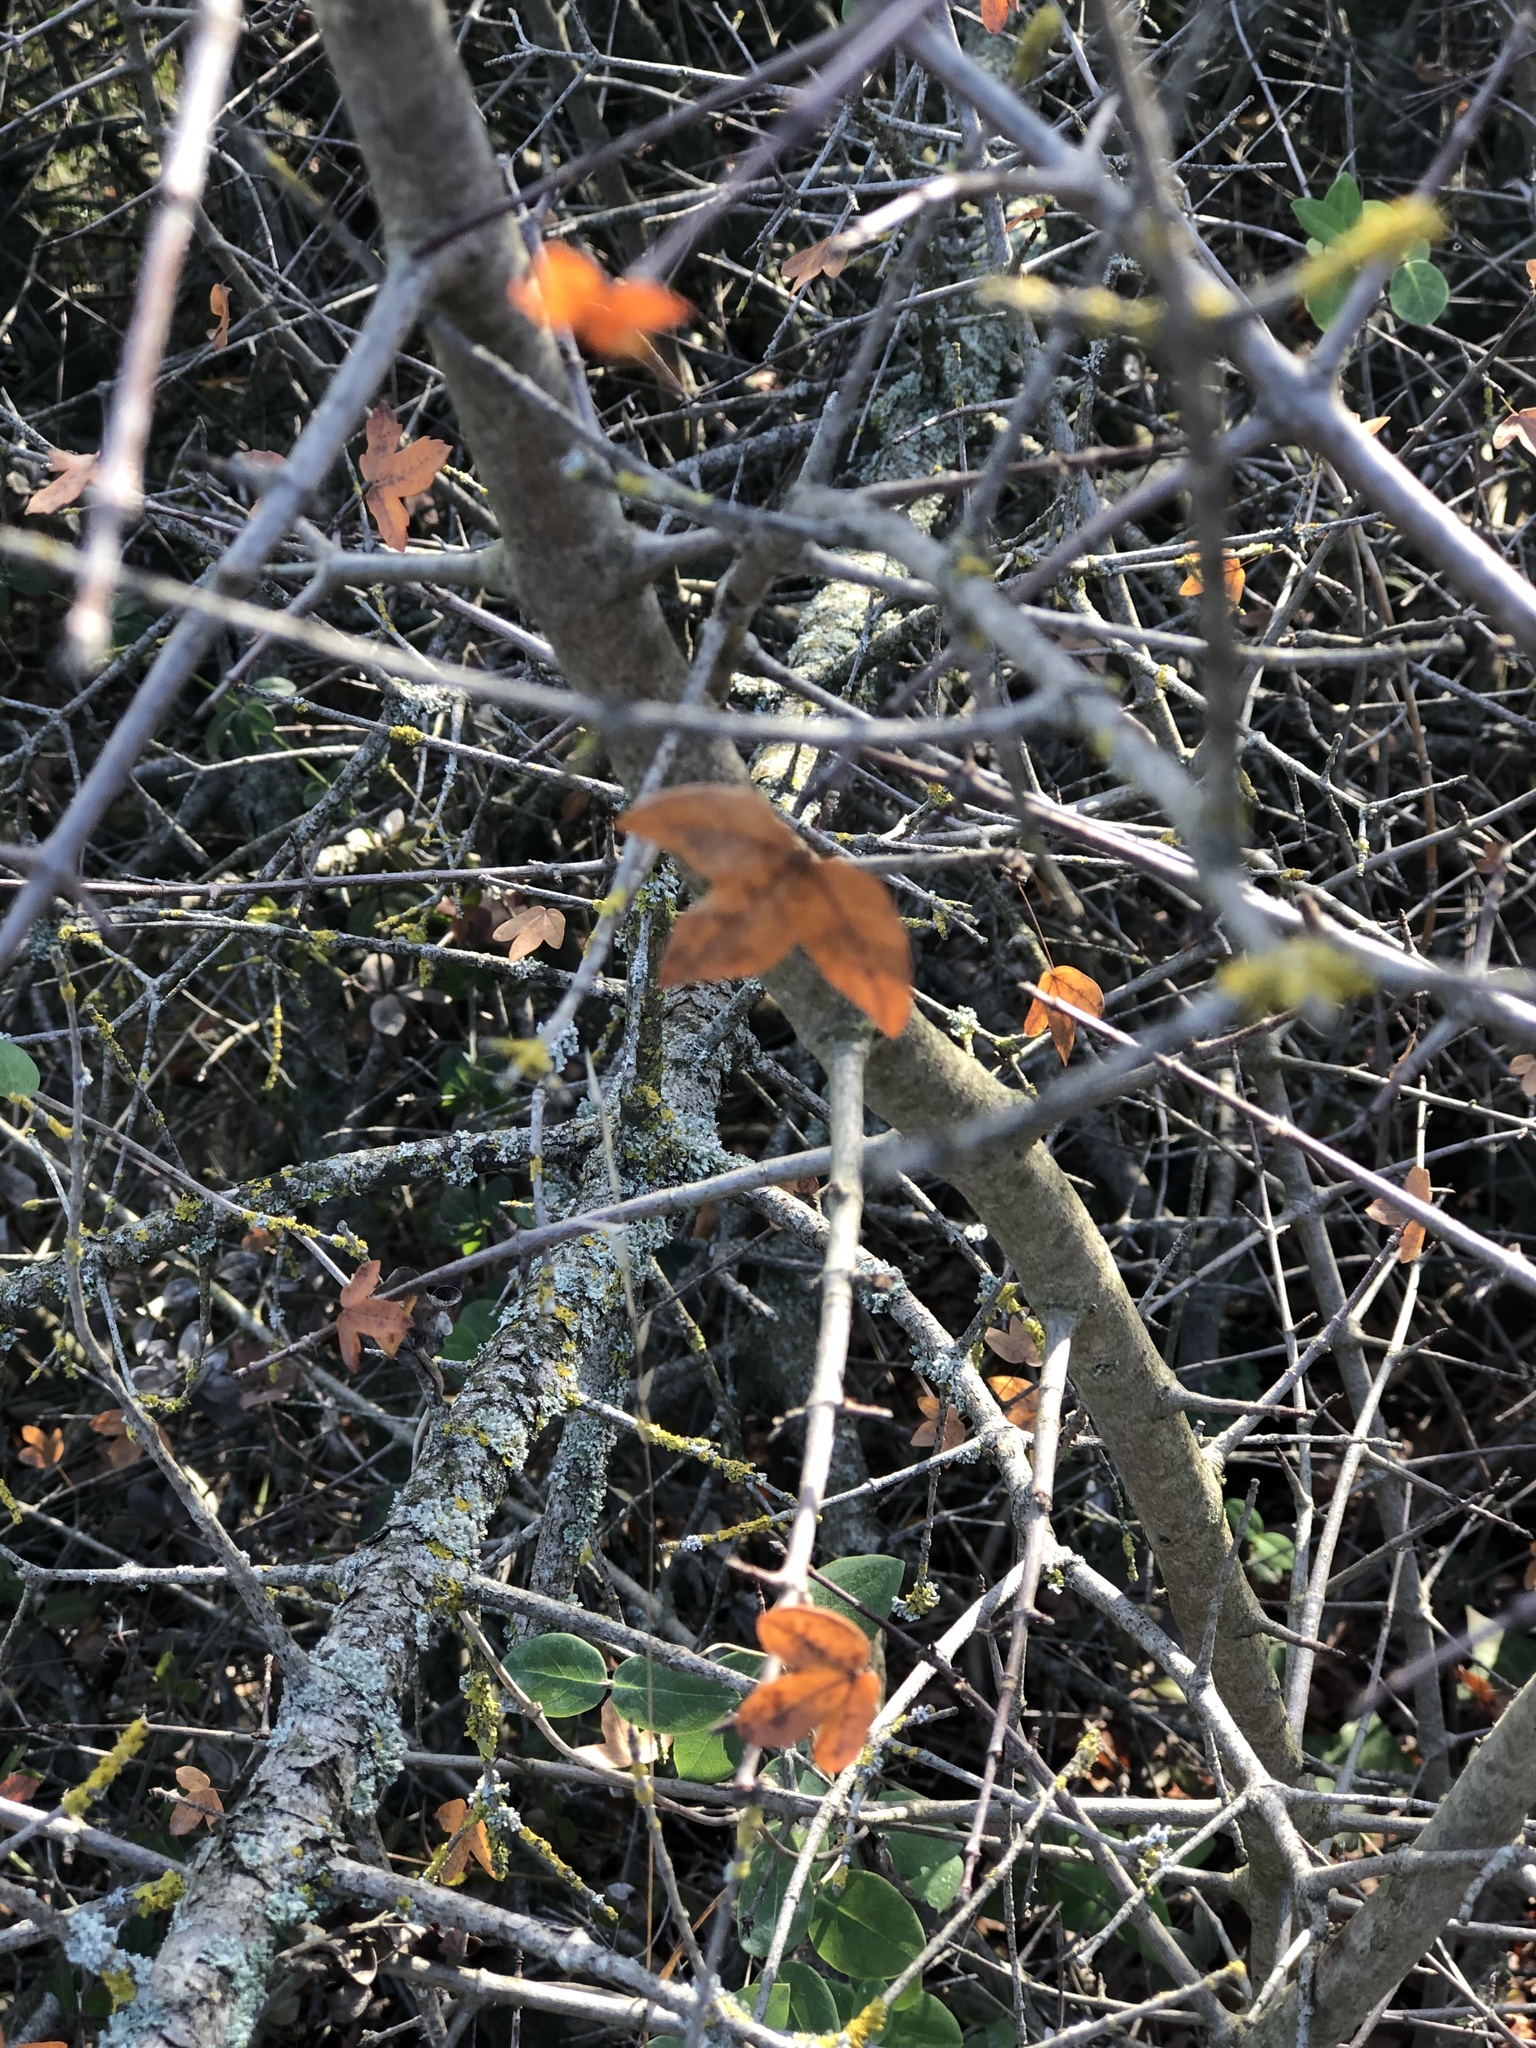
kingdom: Plantae
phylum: Tracheophyta
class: Magnoliopsida
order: Sapindales
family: Sapindaceae
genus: Acer
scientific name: Acer monspessulanum
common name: Montpellier maple
